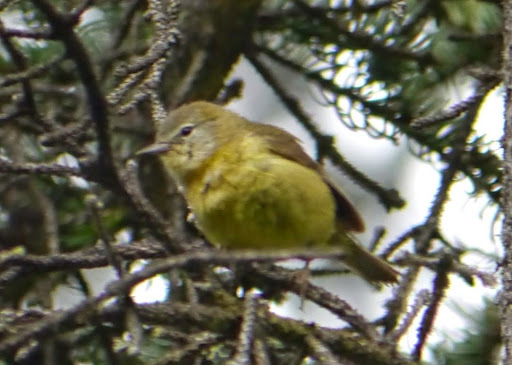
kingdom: Animalia
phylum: Chordata
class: Aves
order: Passeriformes
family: Parulidae
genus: Leiothlypis
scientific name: Leiothlypis celata
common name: Orange-crowned warbler
